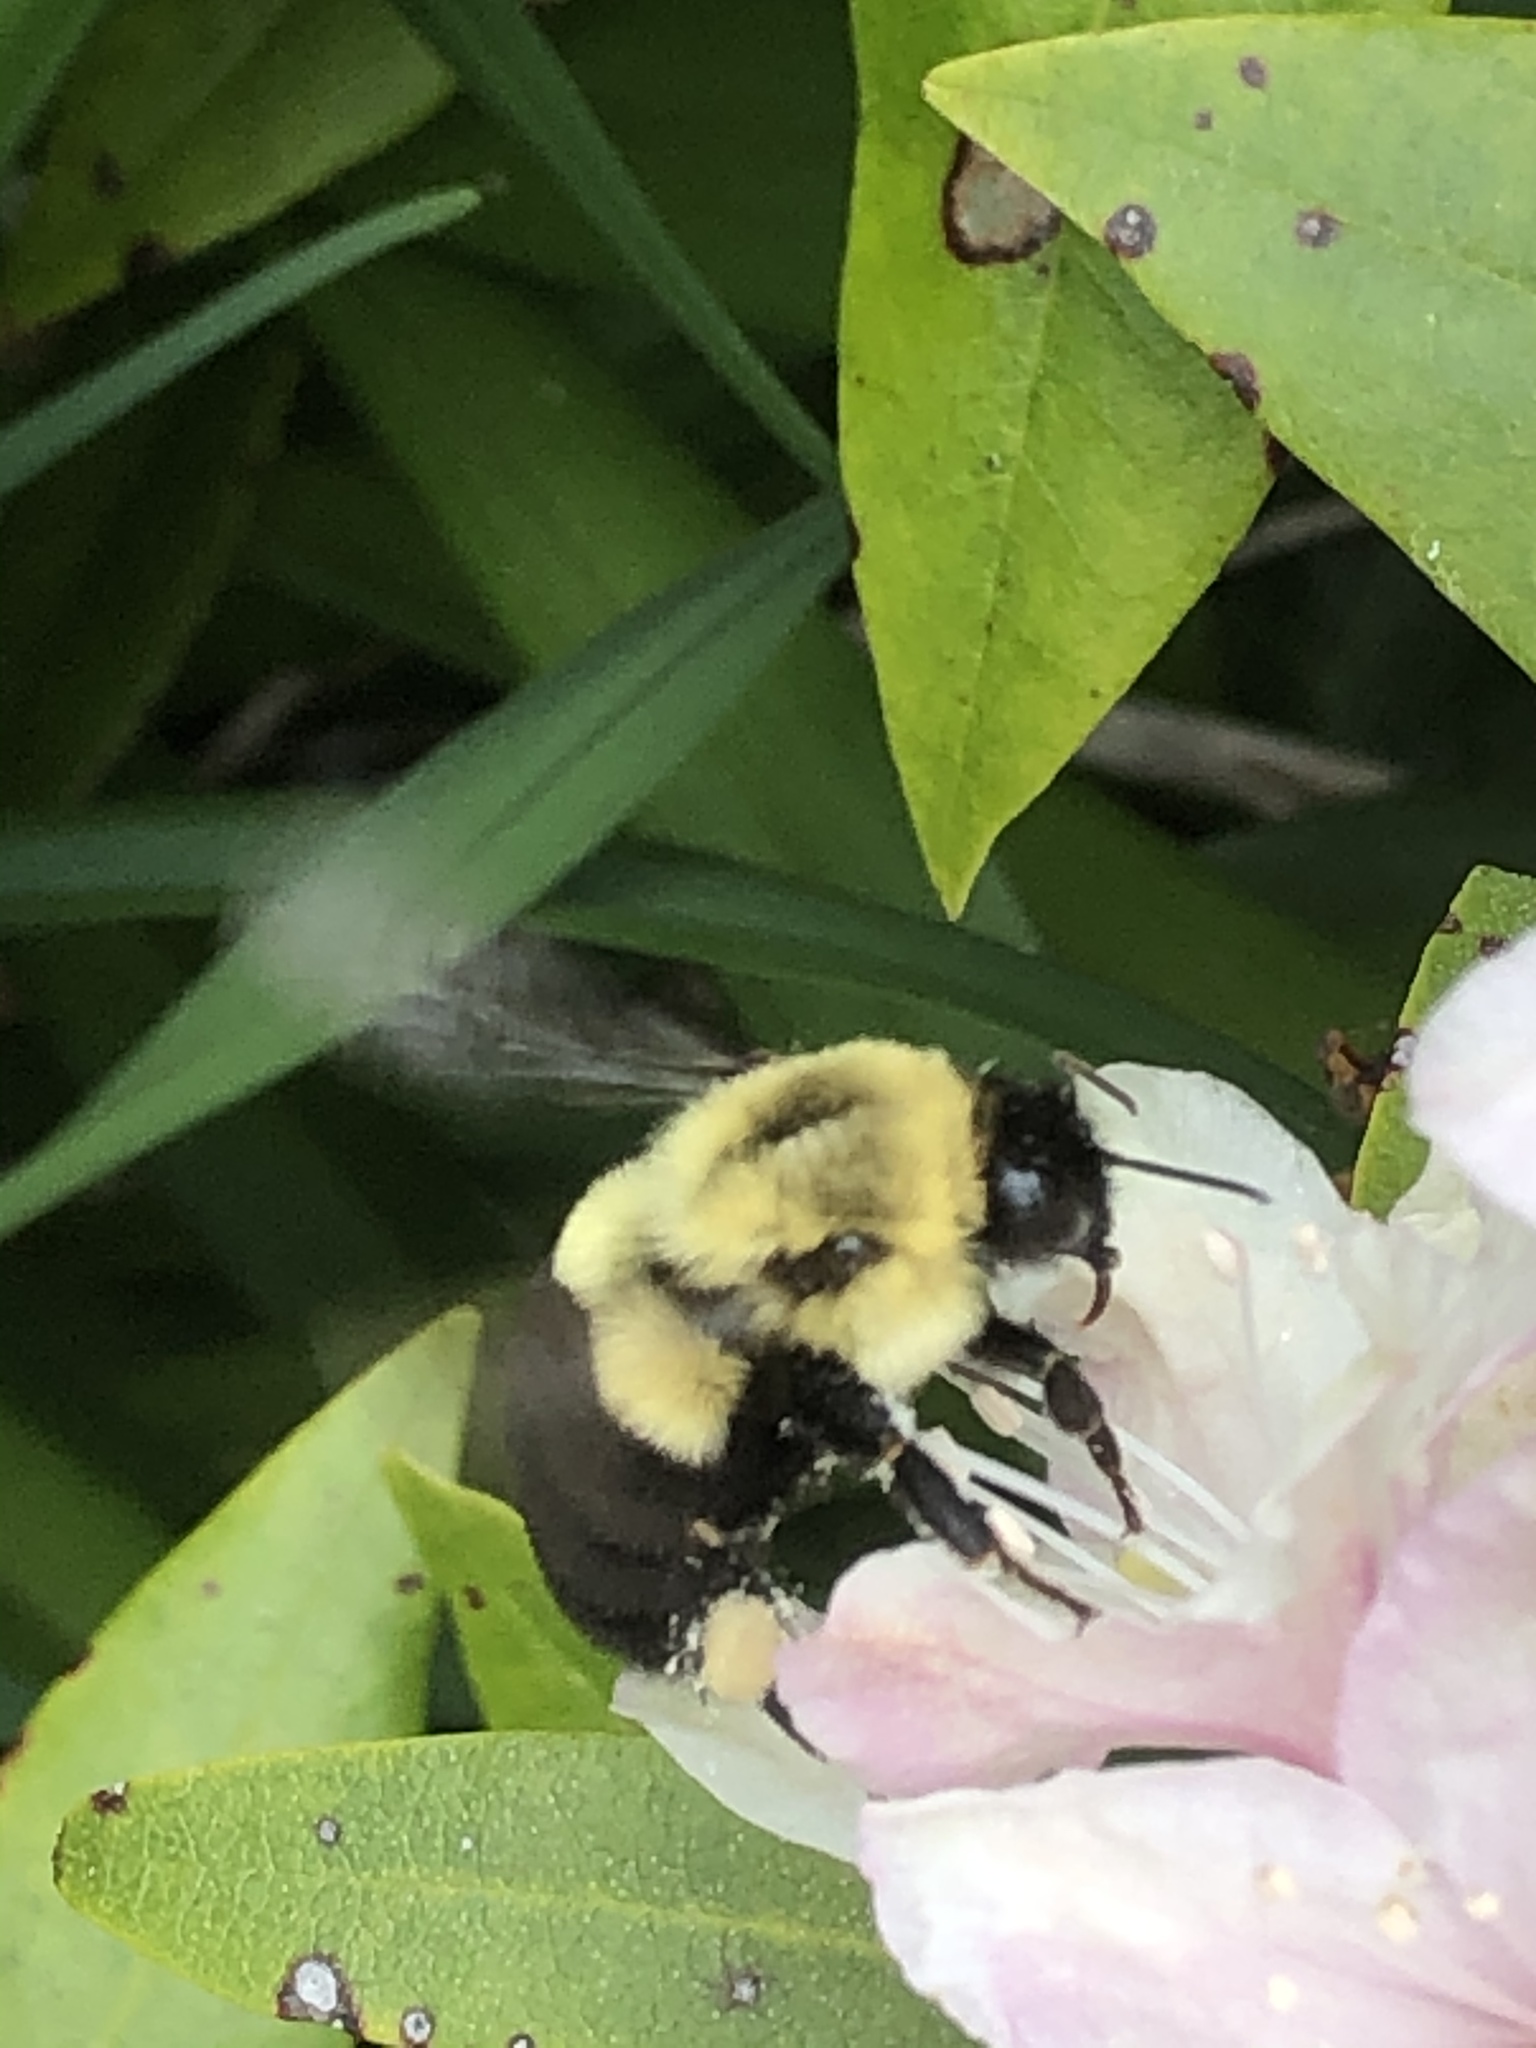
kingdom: Animalia
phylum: Arthropoda
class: Insecta
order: Hymenoptera
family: Apidae
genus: Bombus
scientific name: Bombus impatiens
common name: Common eastern bumble bee
